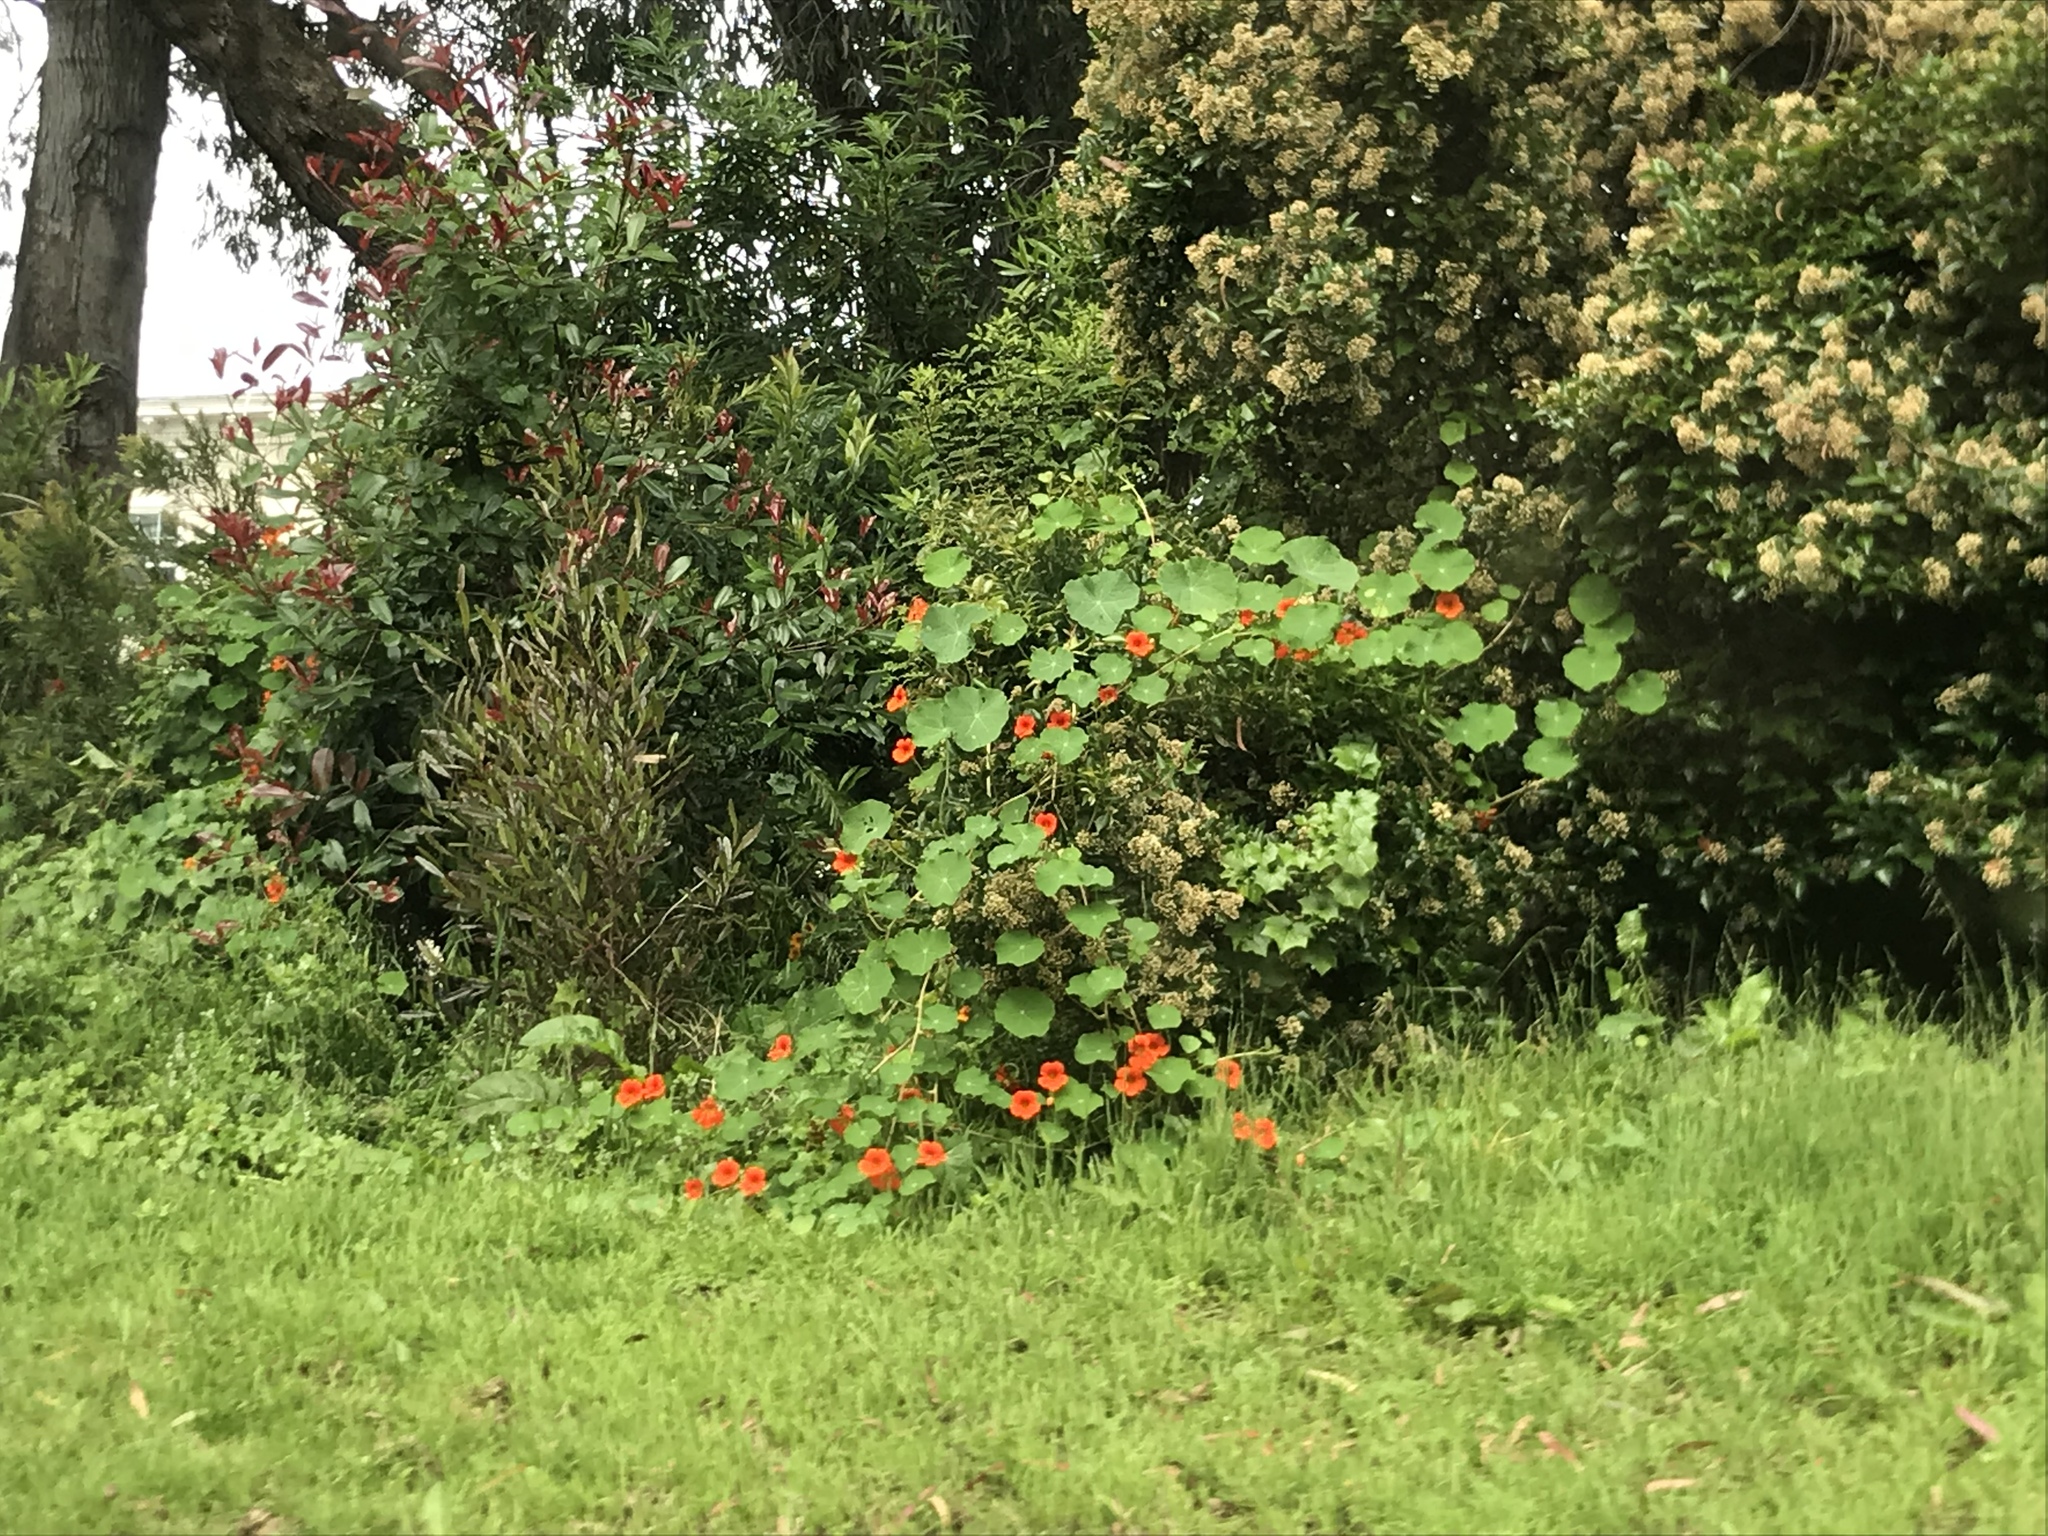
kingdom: Plantae
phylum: Tracheophyta
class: Magnoliopsida
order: Brassicales
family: Tropaeolaceae
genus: Tropaeolum
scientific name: Tropaeolum majus
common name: Nasturtium
